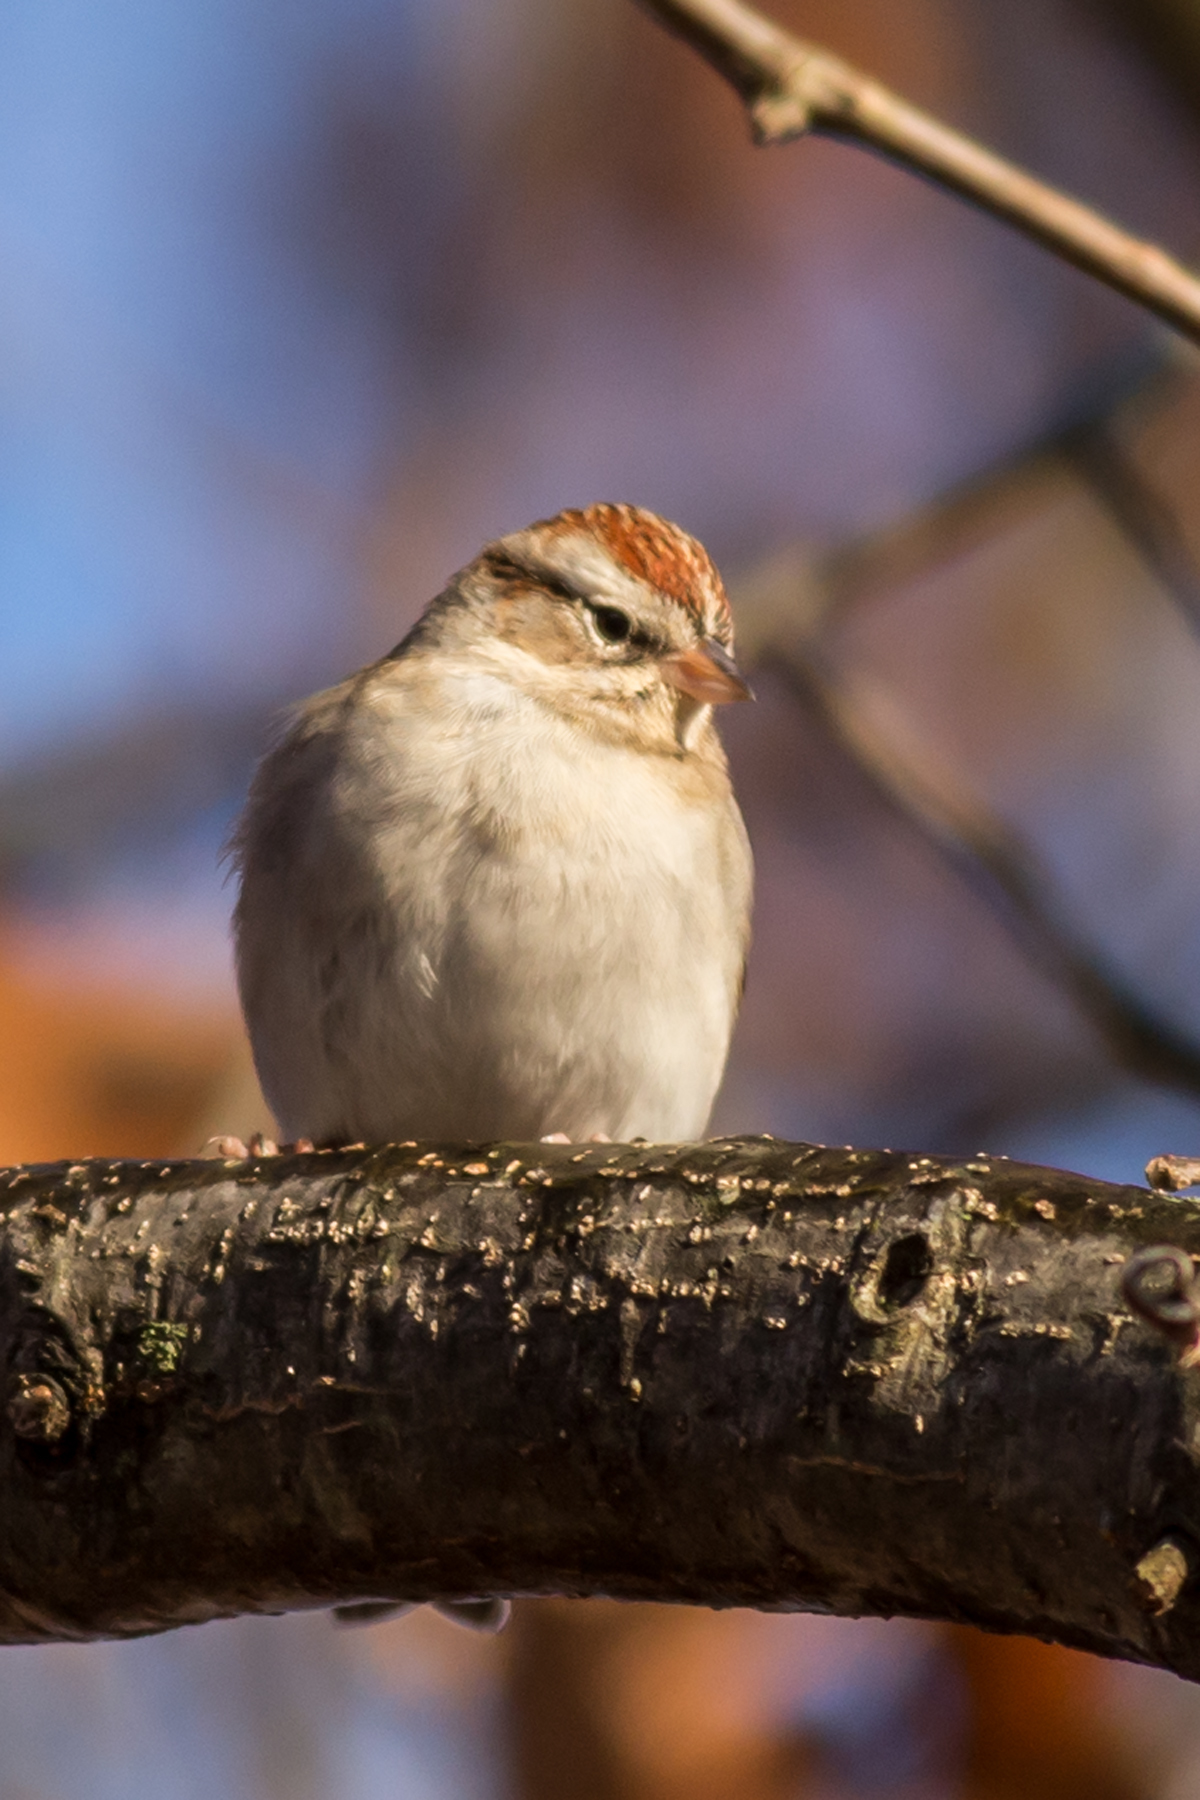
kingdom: Animalia
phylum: Chordata
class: Aves
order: Passeriformes
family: Passerellidae
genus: Spizella
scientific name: Spizella passerina
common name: Chipping sparrow
